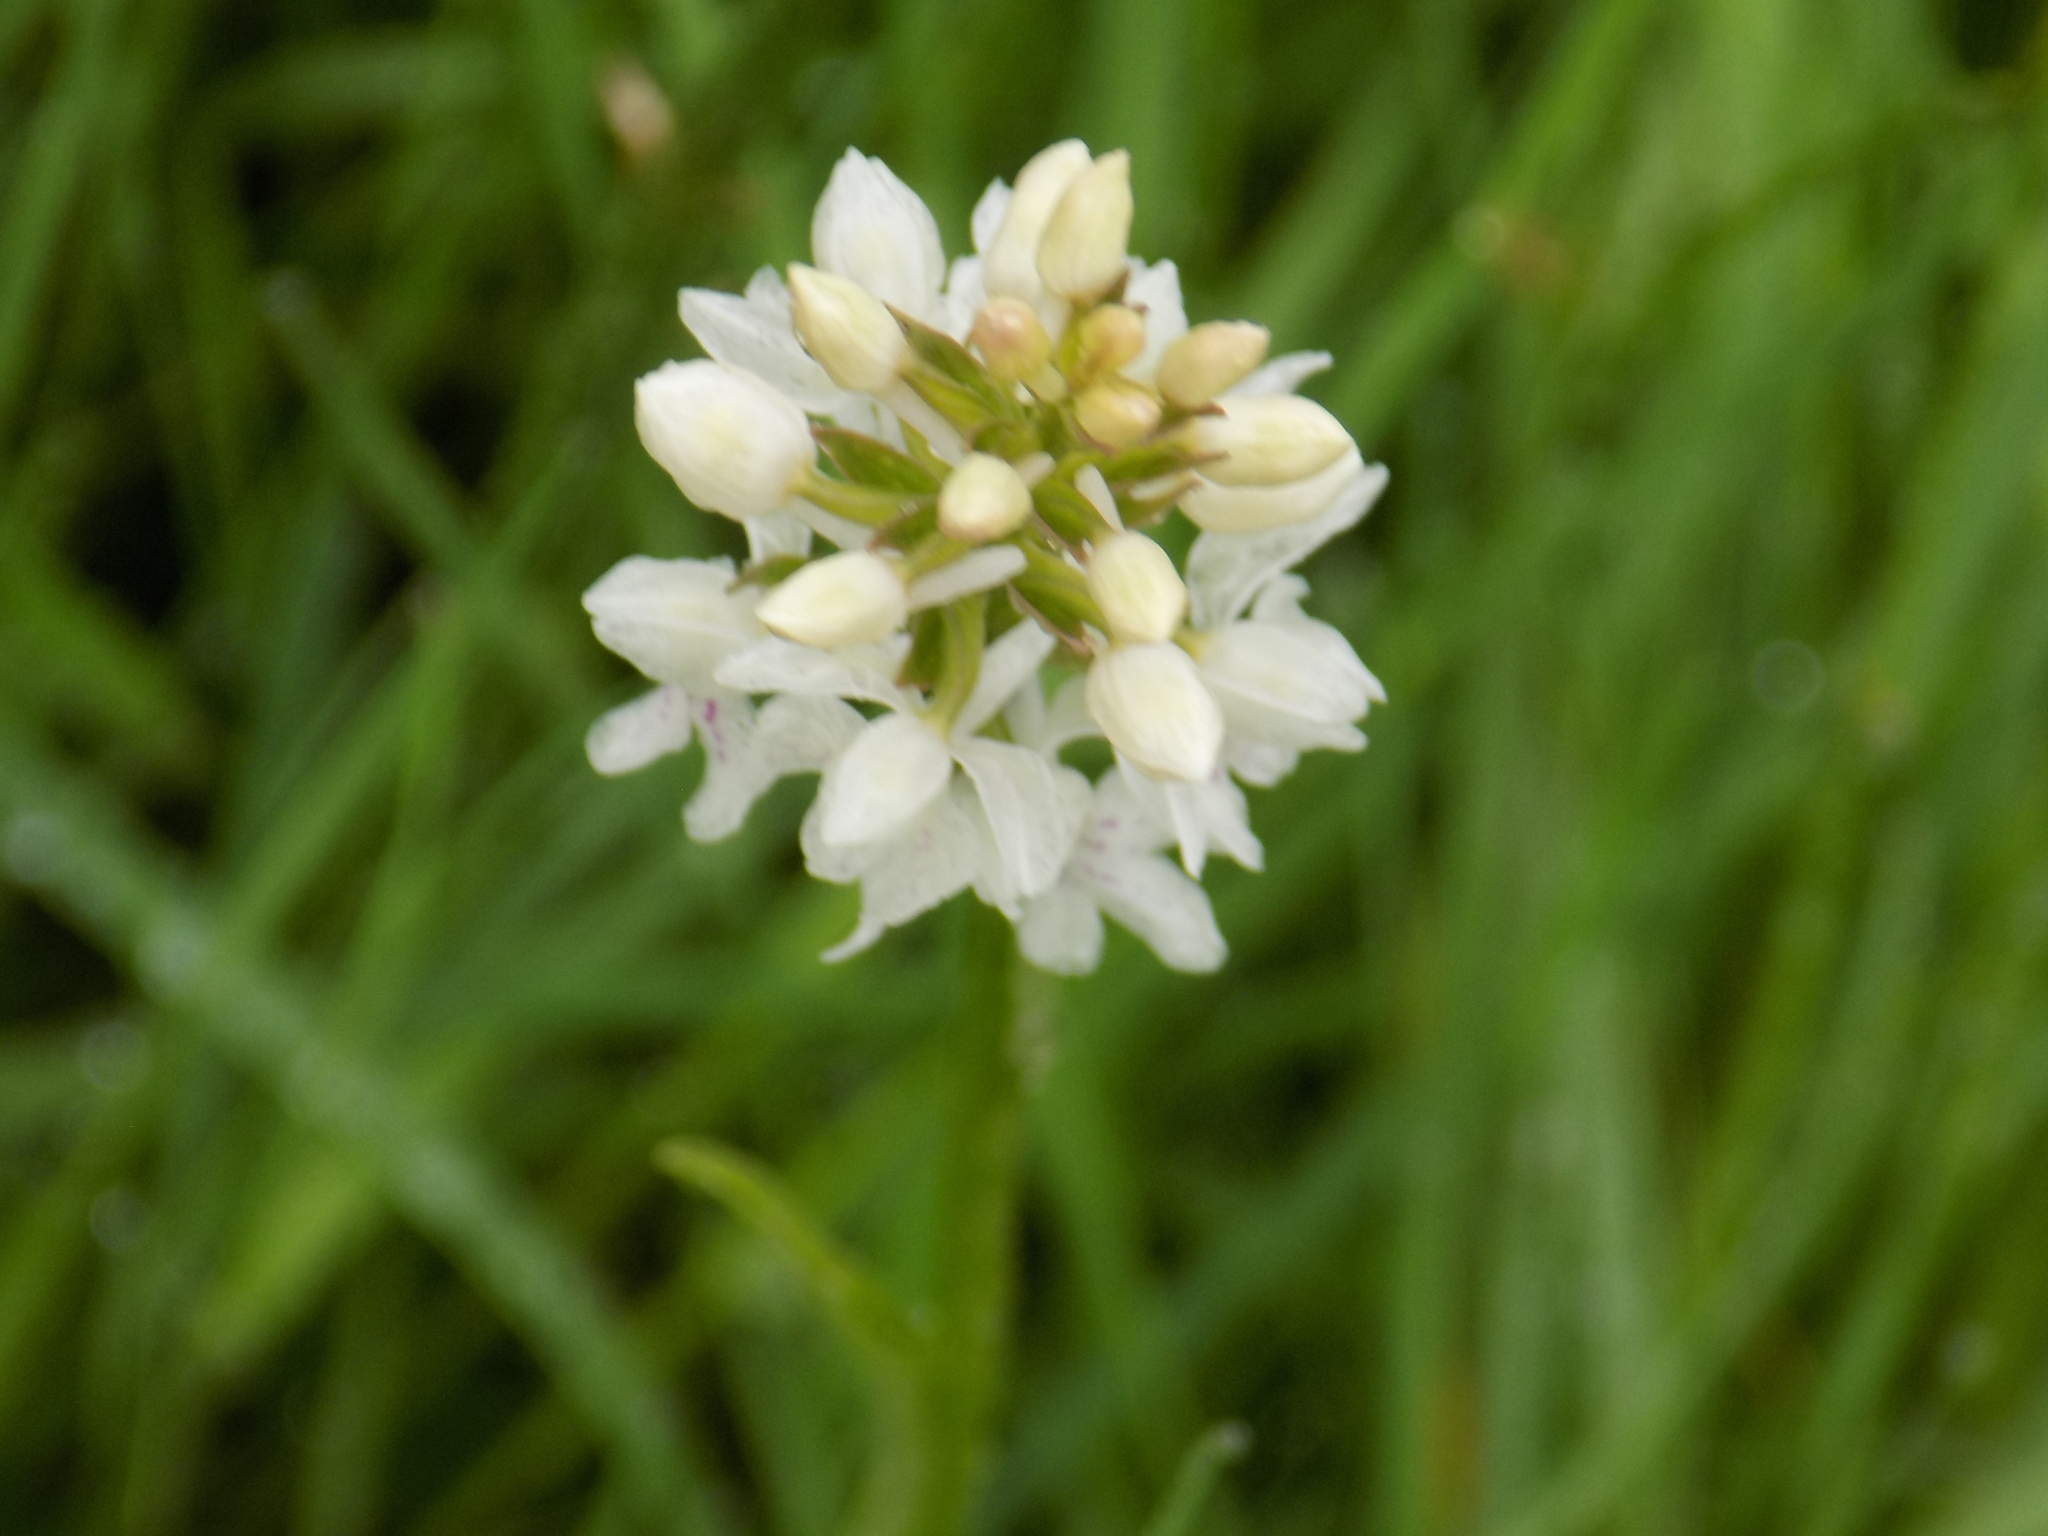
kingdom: Plantae
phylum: Tracheophyta
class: Liliopsida
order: Asparagales
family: Orchidaceae
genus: Dactylorhiza
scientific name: Dactylorhiza maculata
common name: Heath spotted-orchid
